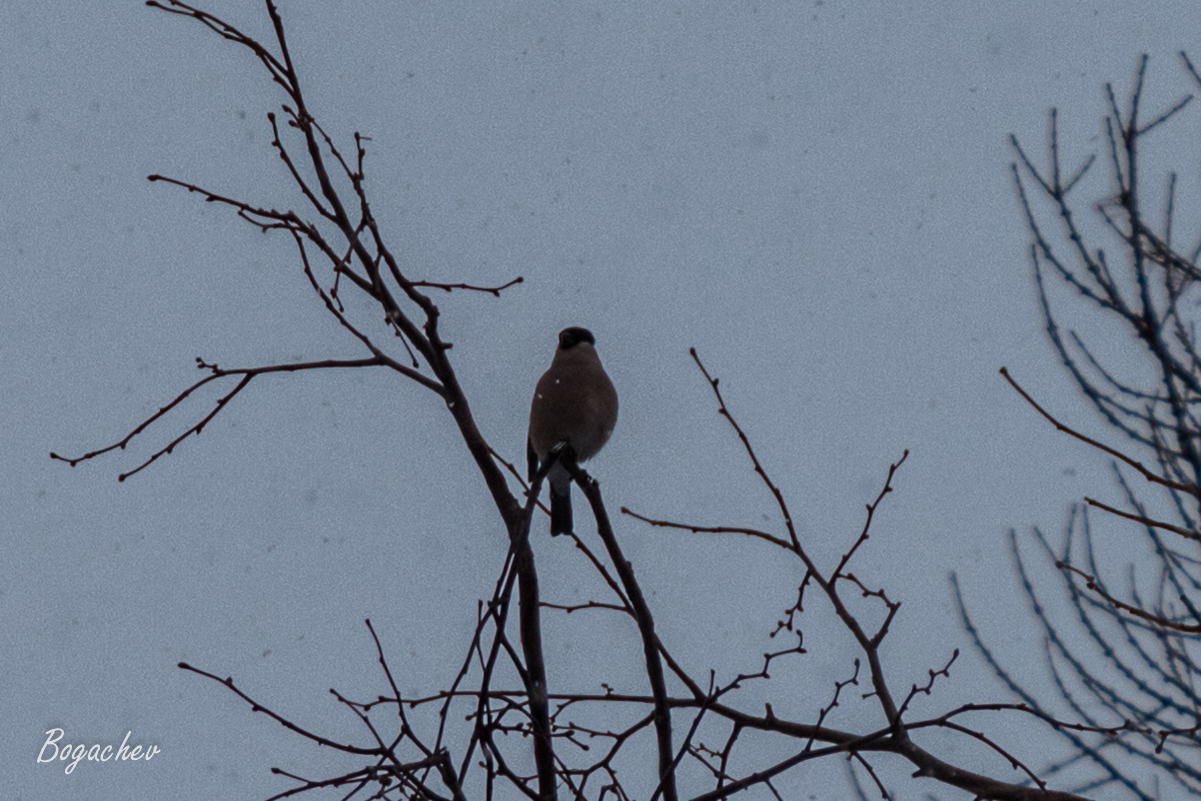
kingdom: Animalia
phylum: Chordata
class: Aves
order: Passeriformes
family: Fringillidae
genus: Pyrrhula
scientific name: Pyrrhula pyrrhula
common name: Eurasian bullfinch
